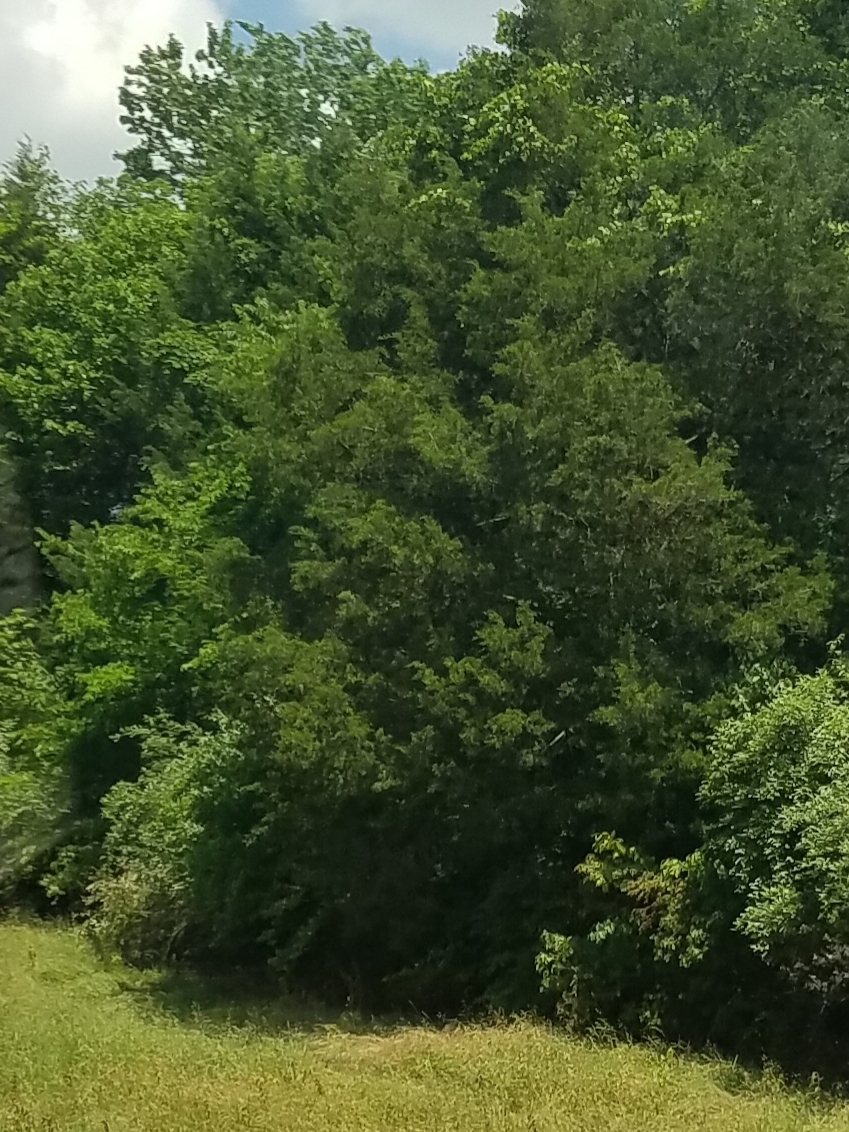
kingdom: Plantae
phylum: Tracheophyta
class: Pinopsida
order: Pinales
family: Cupressaceae
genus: Juniperus
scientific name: Juniperus virginiana
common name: Red juniper
